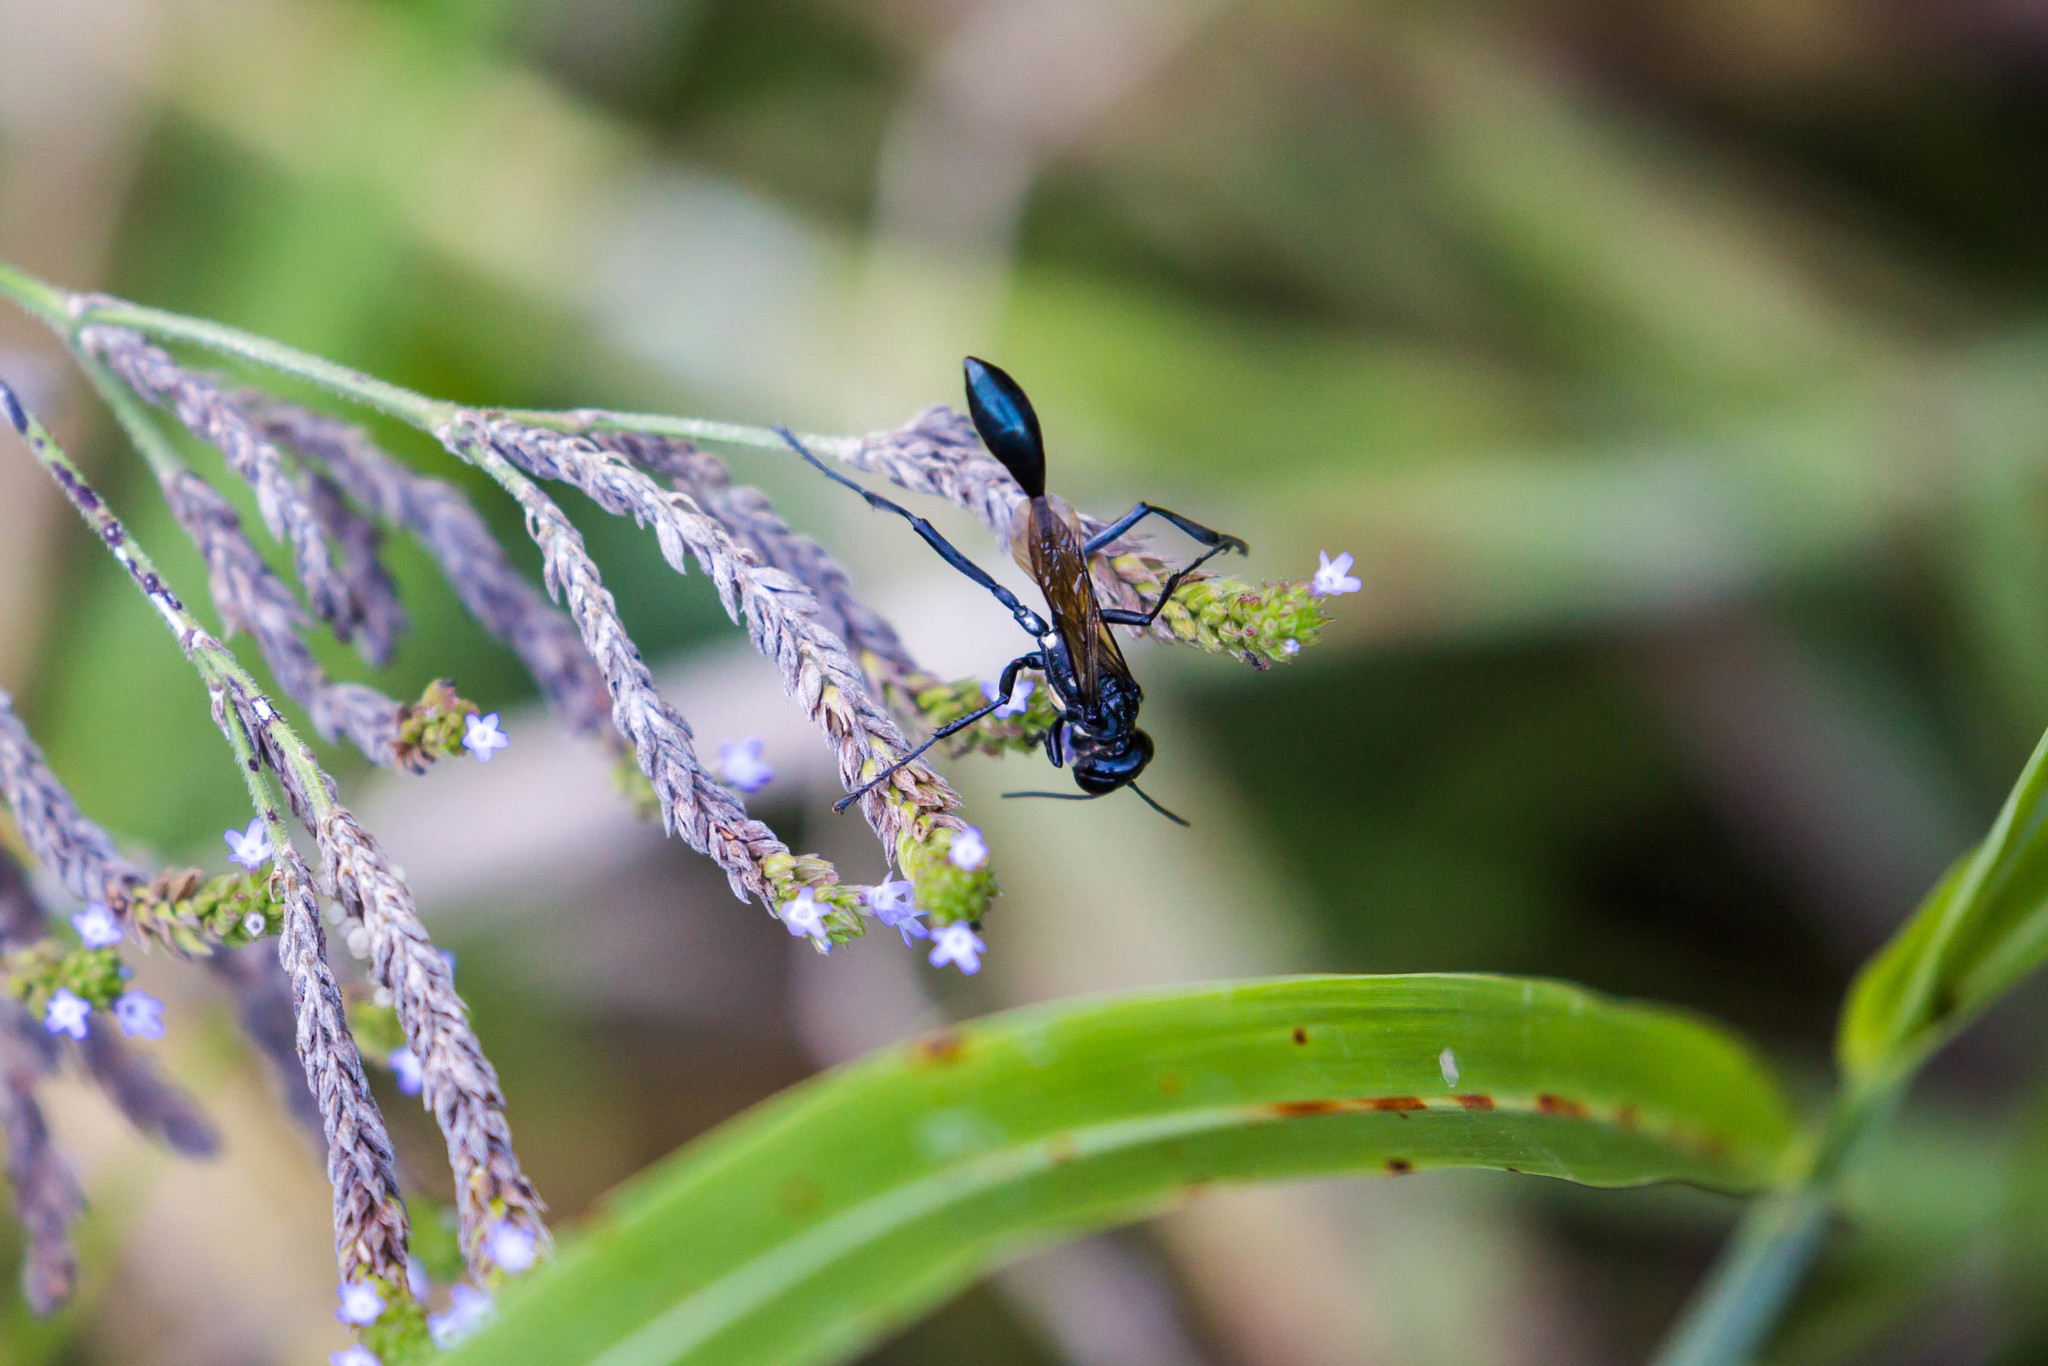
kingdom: Animalia
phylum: Arthropoda
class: Insecta
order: Hymenoptera
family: Sphecidae
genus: Eremnophila
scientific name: Eremnophila aureonotata
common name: Gold-marked thread-waisted wasp
